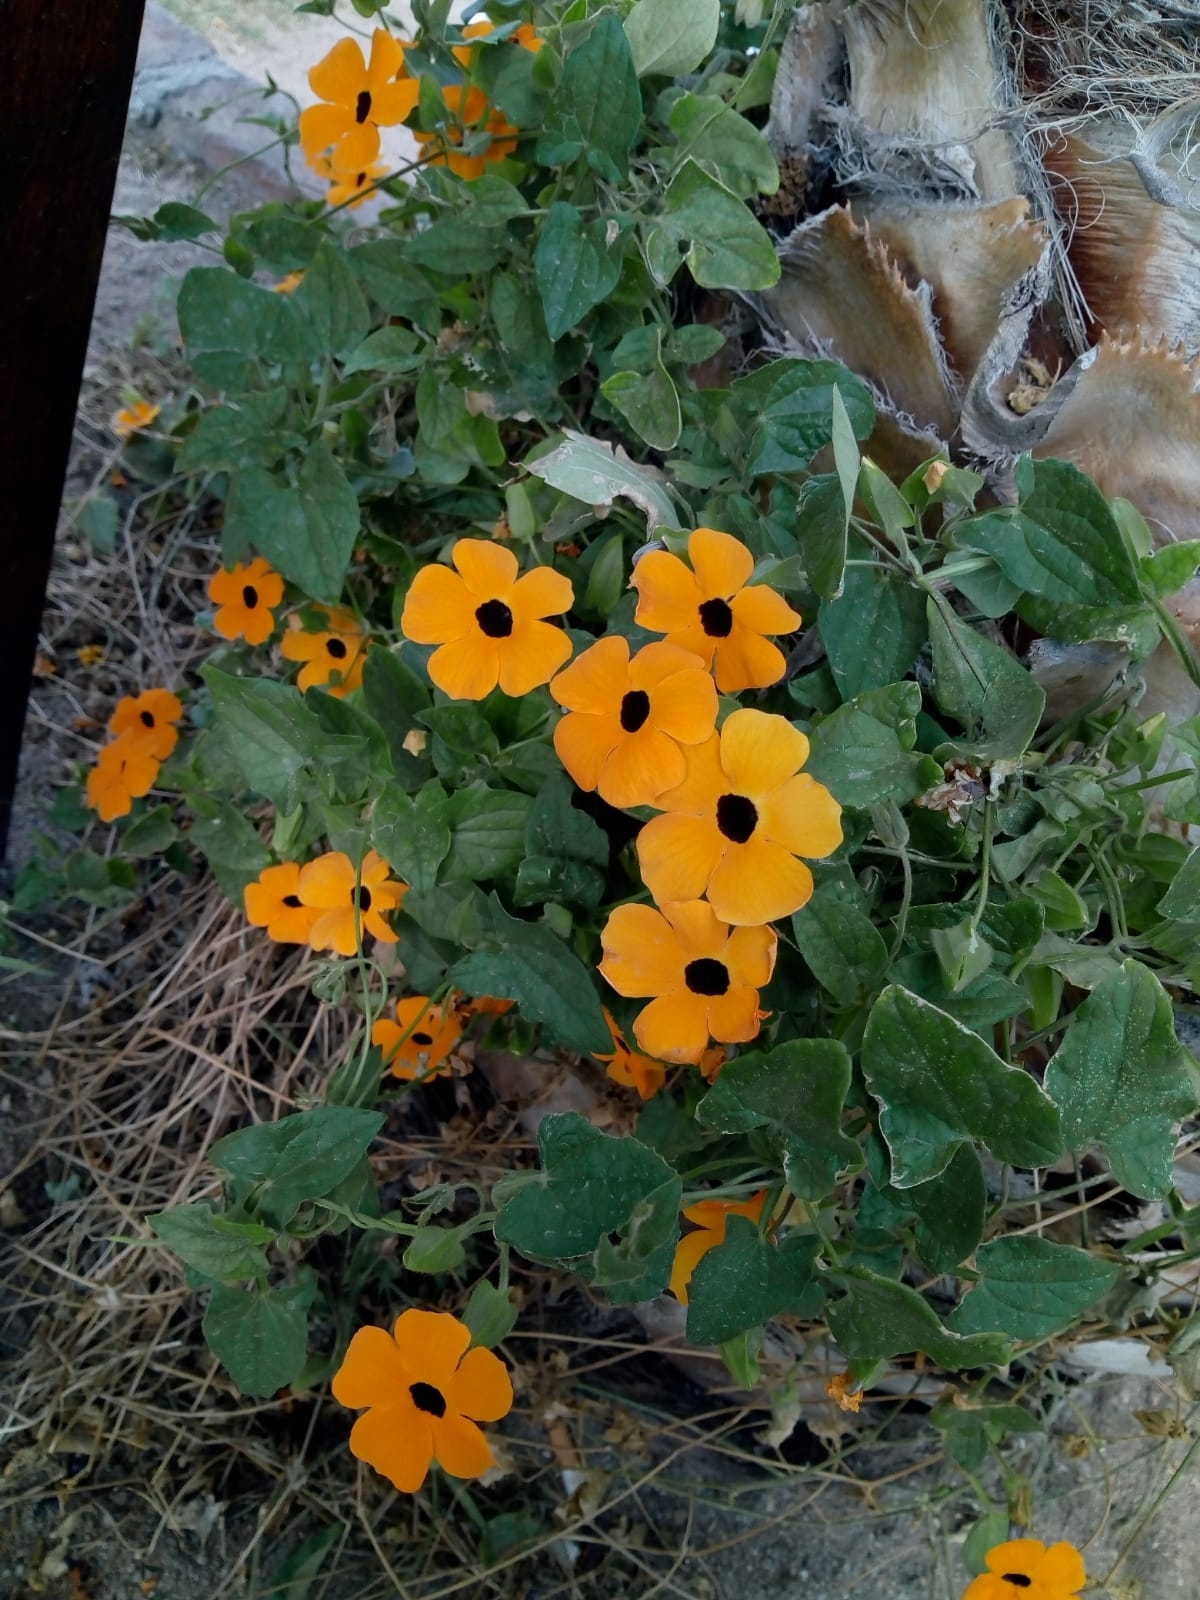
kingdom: Plantae
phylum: Tracheophyta
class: Magnoliopsida
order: Lamiales
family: Acanthaceae
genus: Thunbergia
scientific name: Thunbergia alata
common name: Blackeyed susan vine
